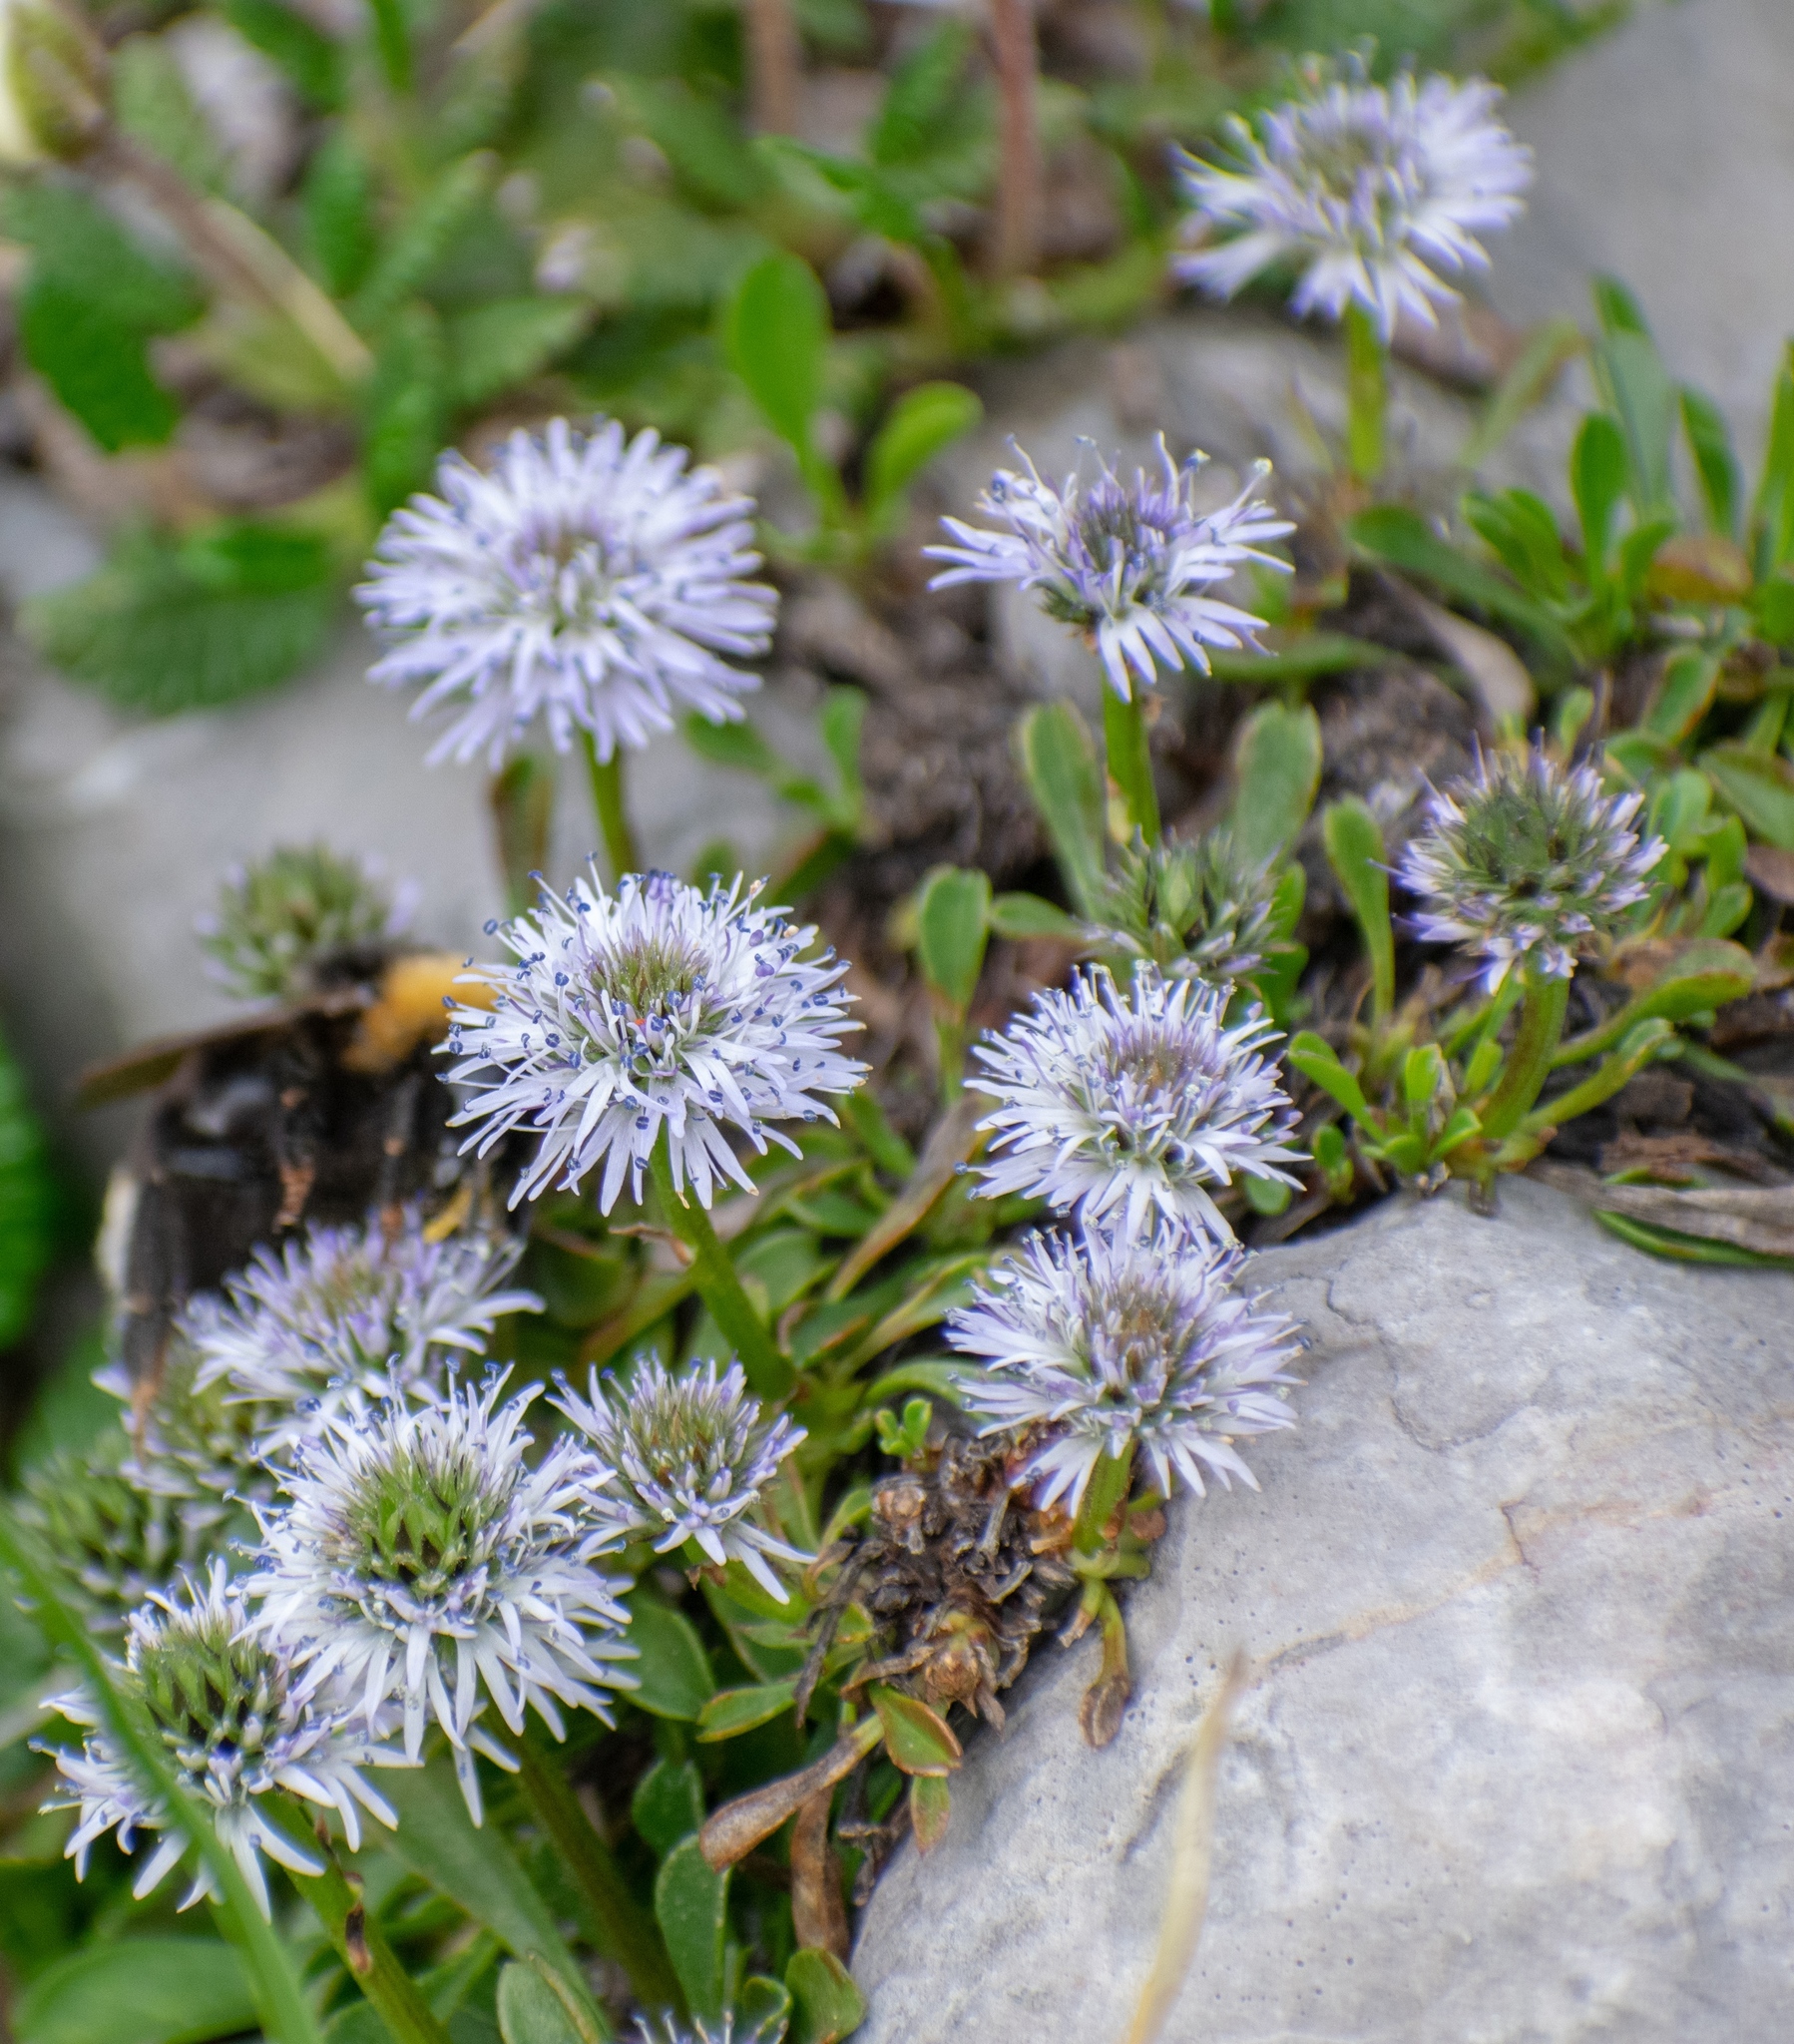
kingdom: Plantae
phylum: Tracheophyta
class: Magnoliopsida
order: Lamiales
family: Plantaginaceae
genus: Globularia
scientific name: Globularia cordifolia
